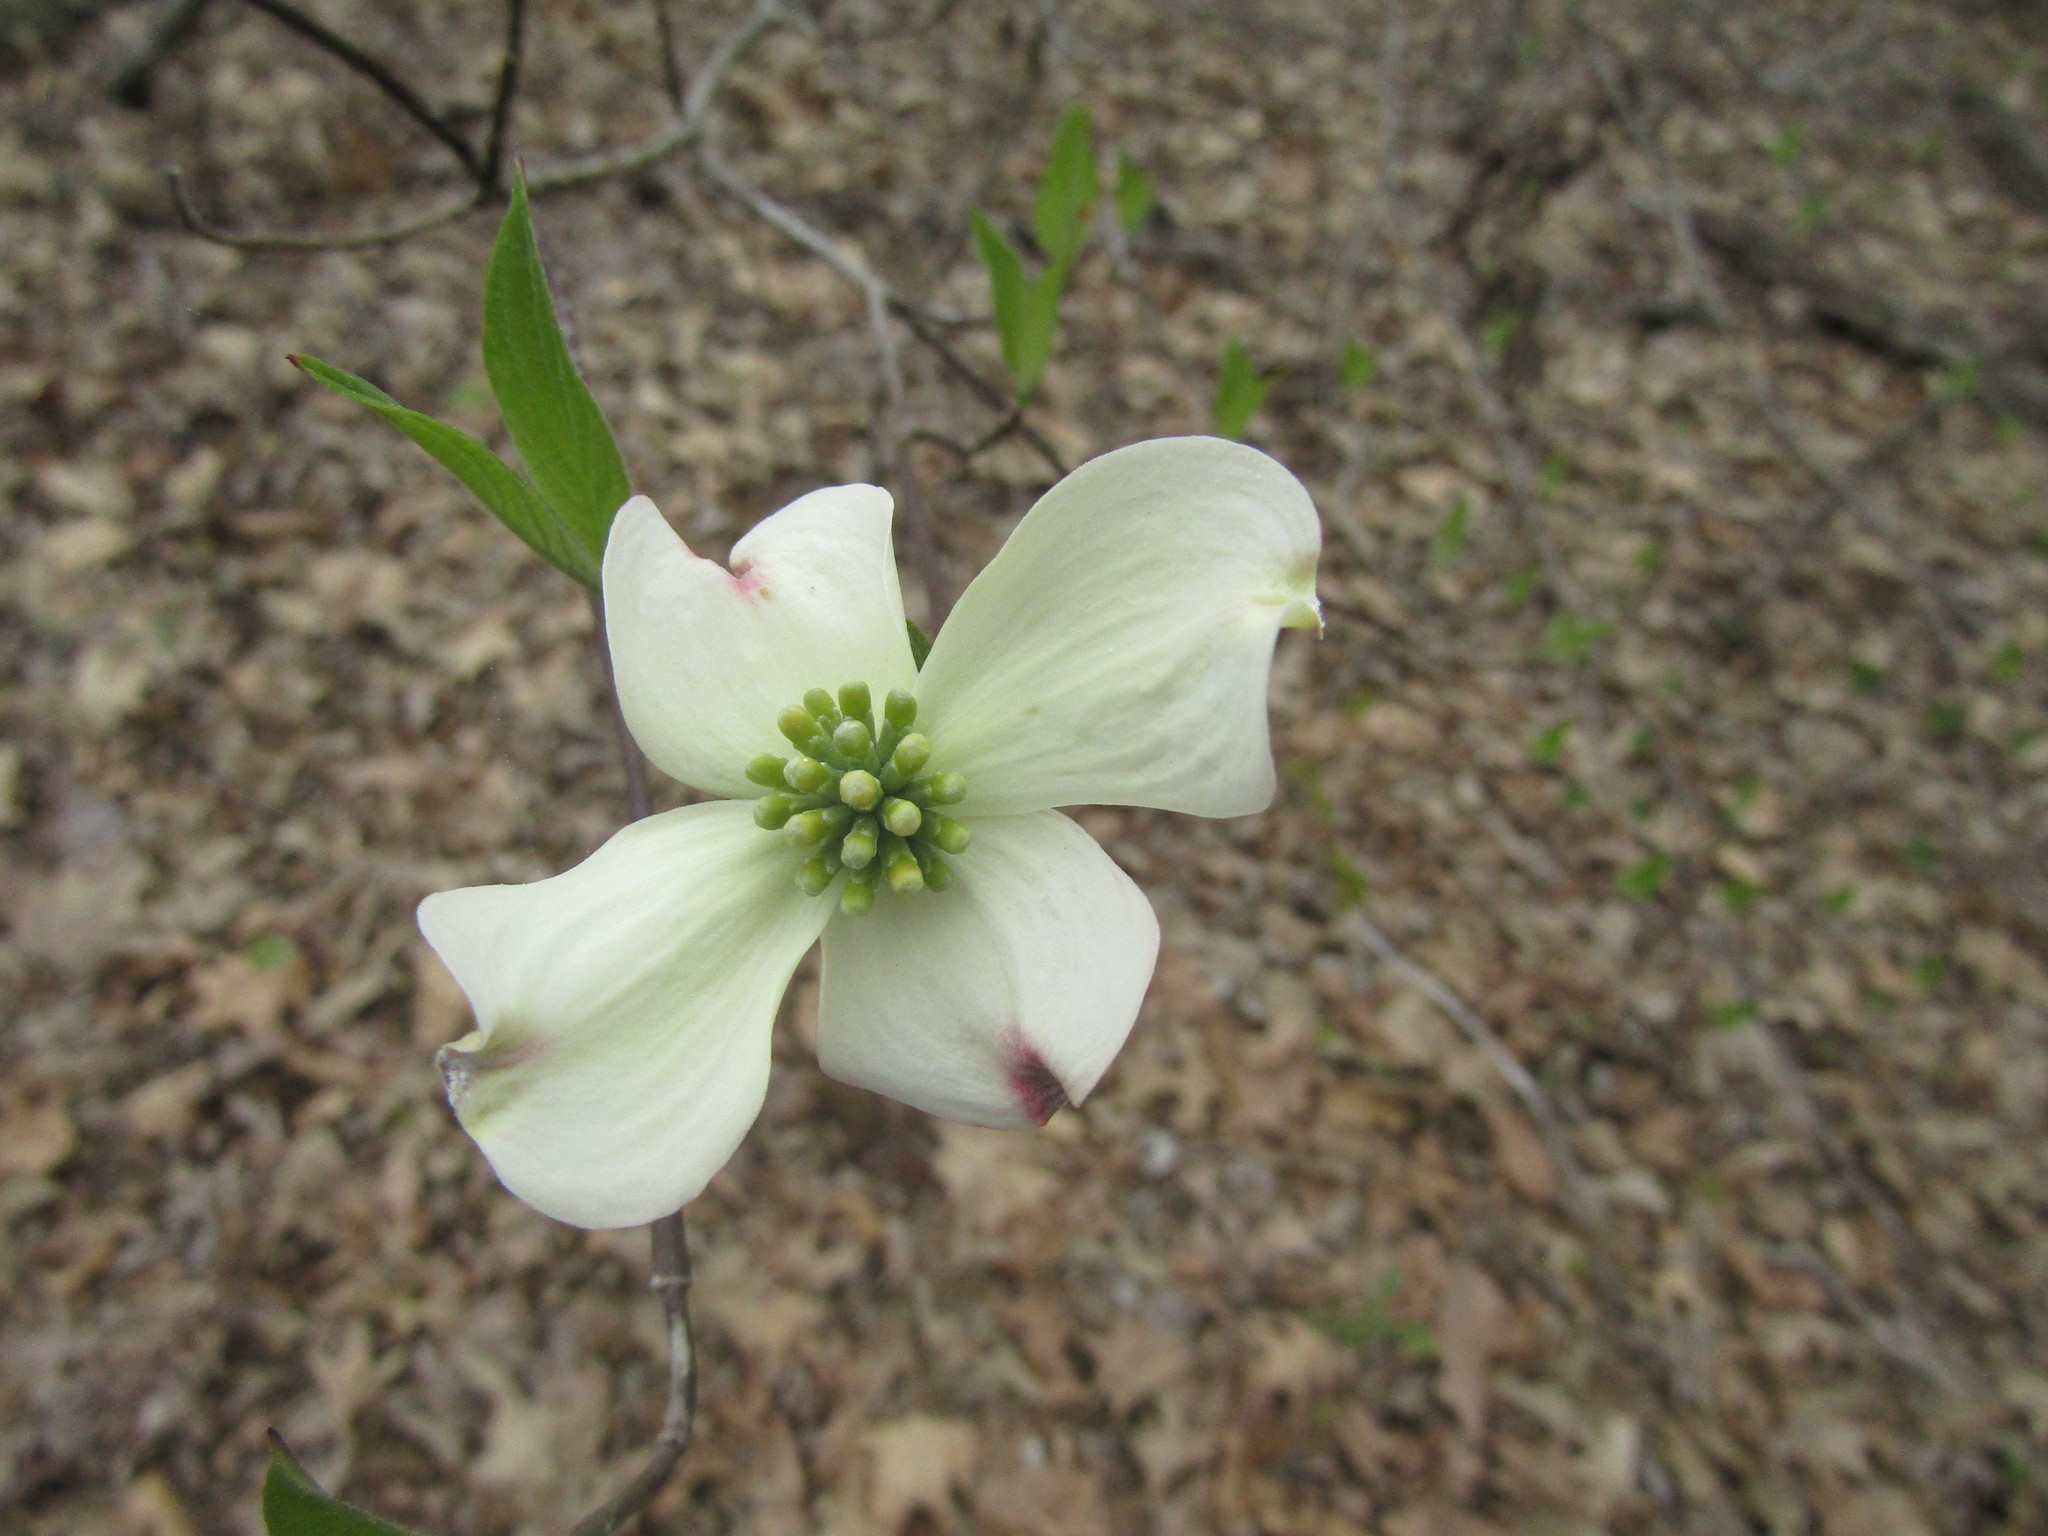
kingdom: Plantae
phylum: Tracheophyta
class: Magnoliopsida
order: Cornales
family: Cornaceae
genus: Cornus
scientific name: Cornus florida
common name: Flowering dogwood
